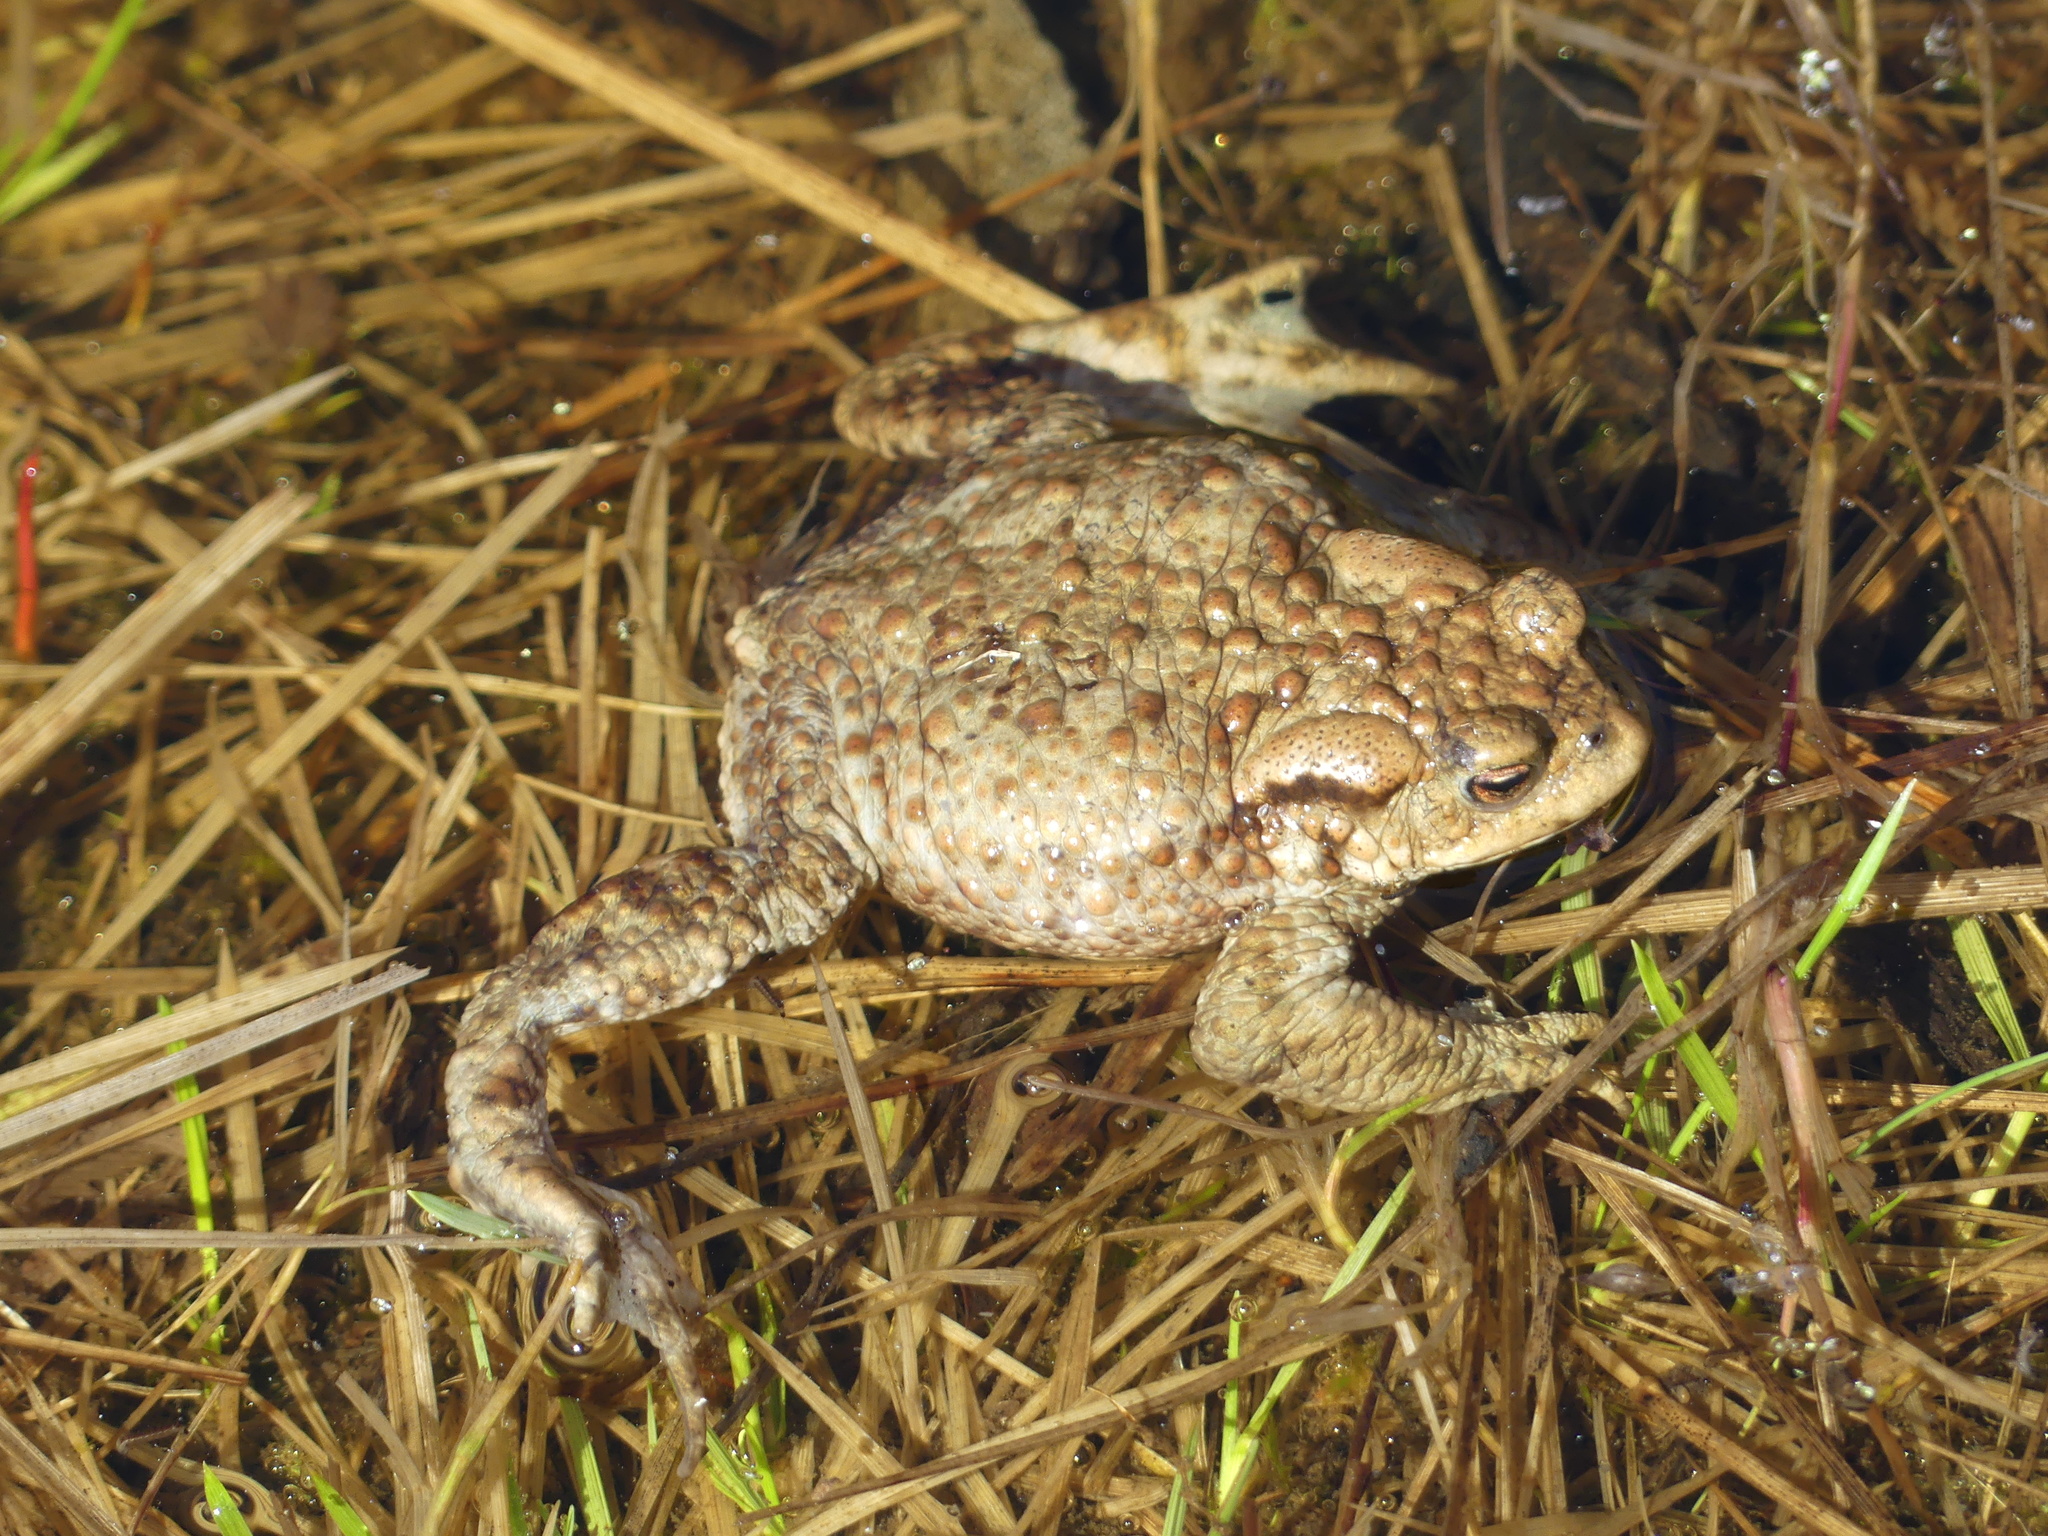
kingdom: Animalia
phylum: Chordata
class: Amphibia
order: Anura
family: Bufonidae
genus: Bufo
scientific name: Bufo bufo
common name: Common toad
